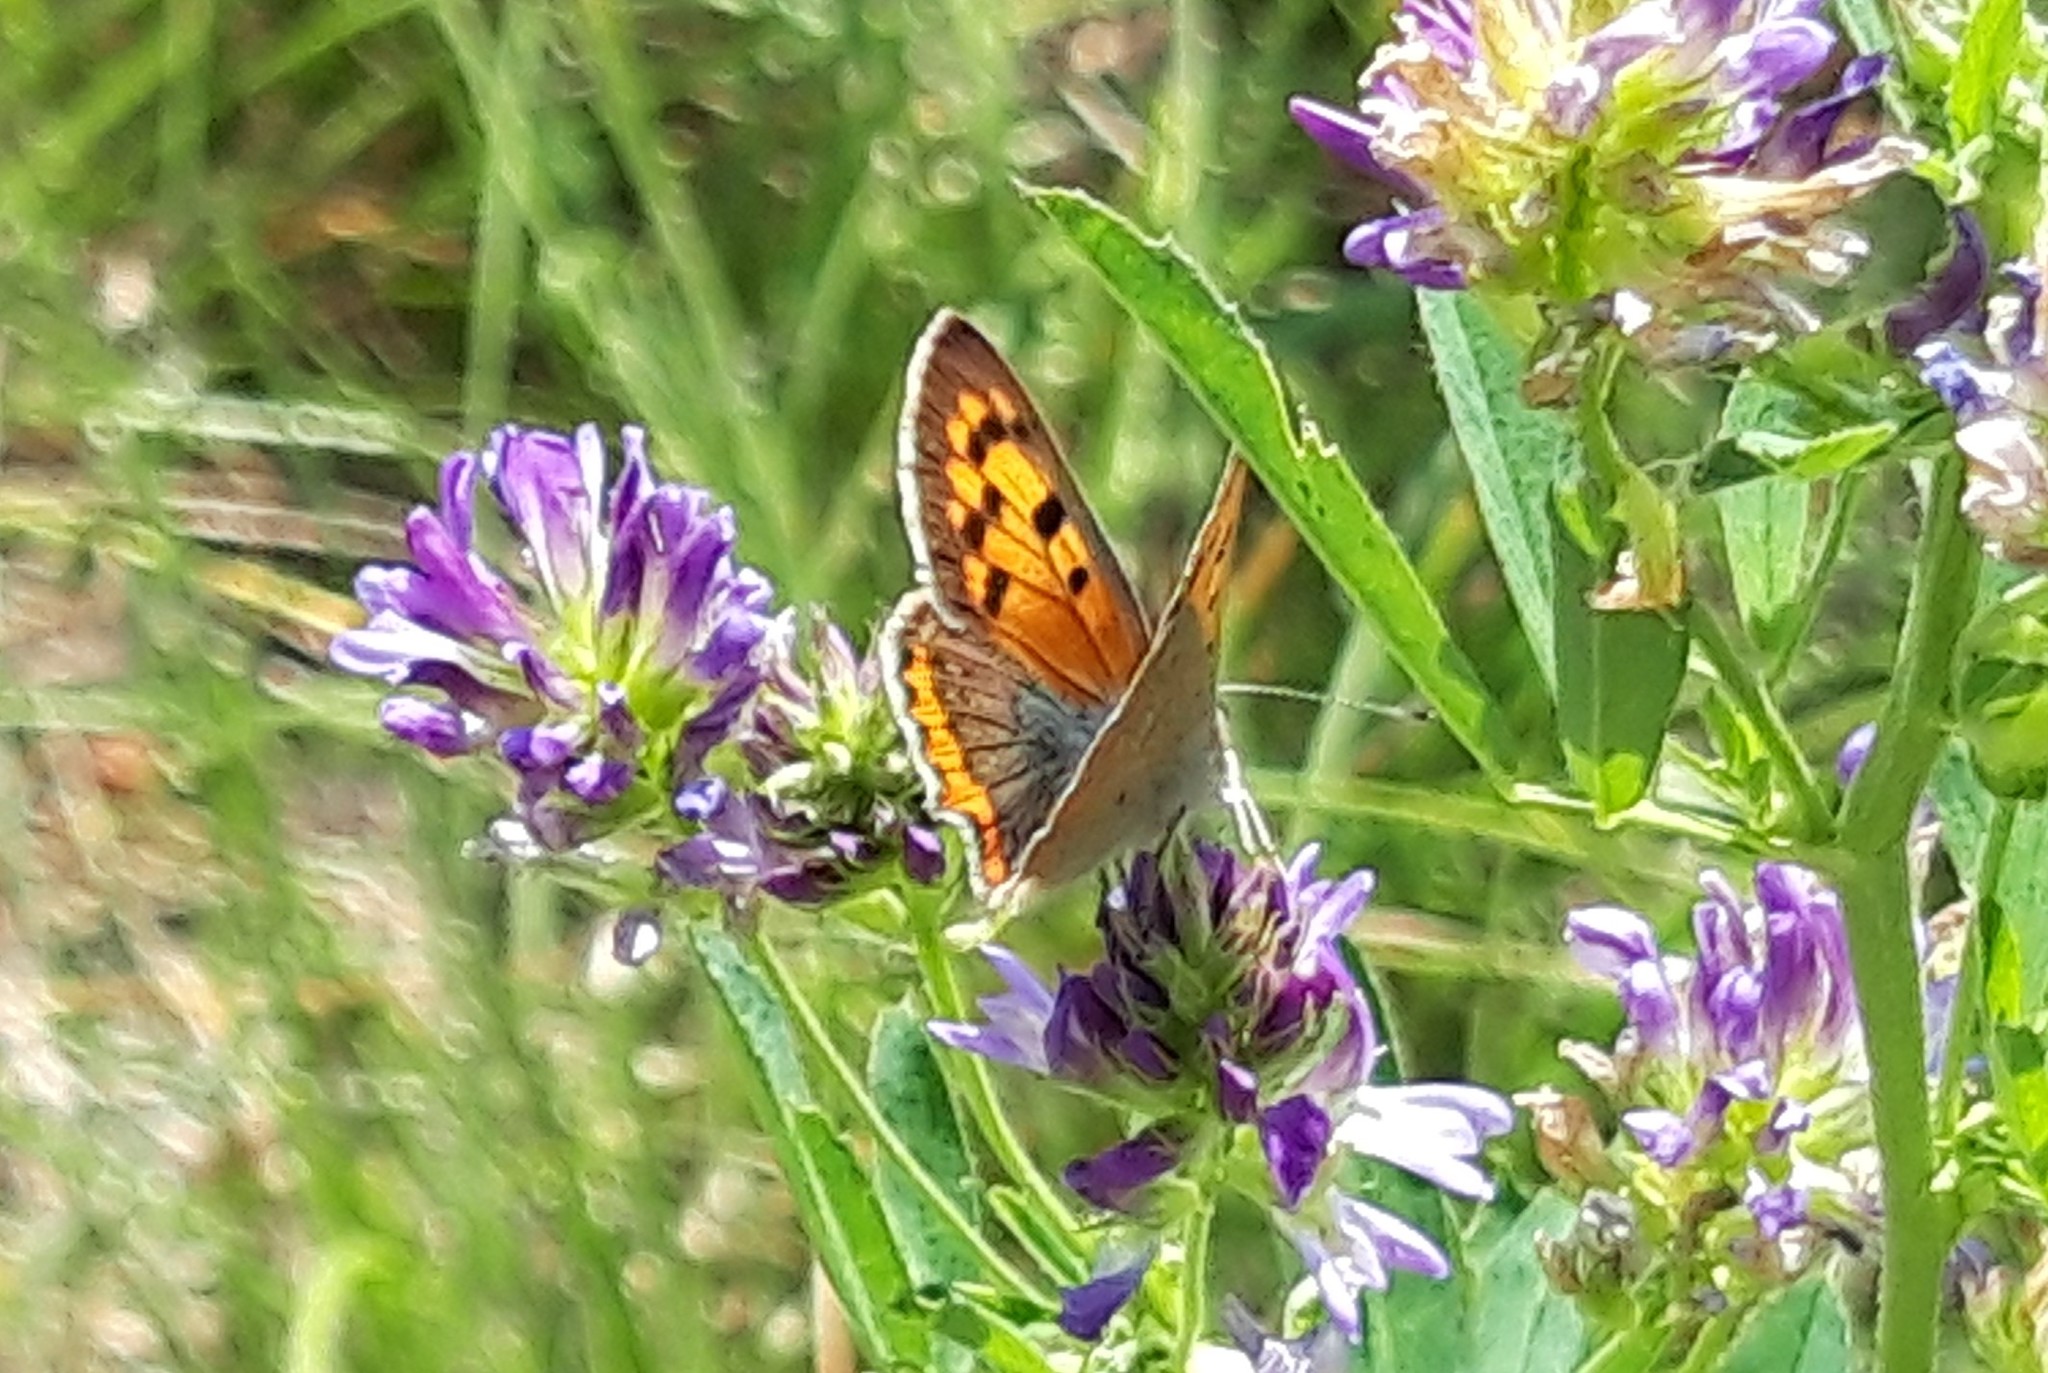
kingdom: Animalia
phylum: Arthropoda
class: Insecta
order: Lepidoptera
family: Lycaenidae
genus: Lycaena
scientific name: Lycaena phlaeas
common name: Small copper
